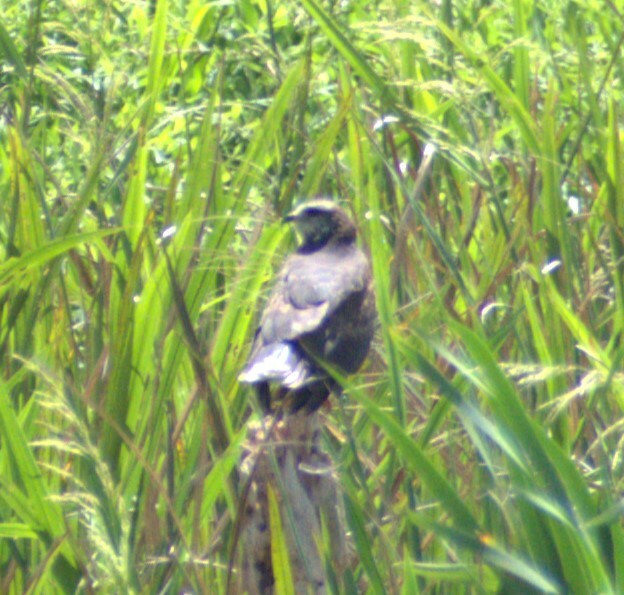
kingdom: Animalia
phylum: Chordata
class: Aves
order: Accipitriformes
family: Accipitridae
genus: Rostrhamus
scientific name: Rostrhamus sociabilis
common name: Snail kite
